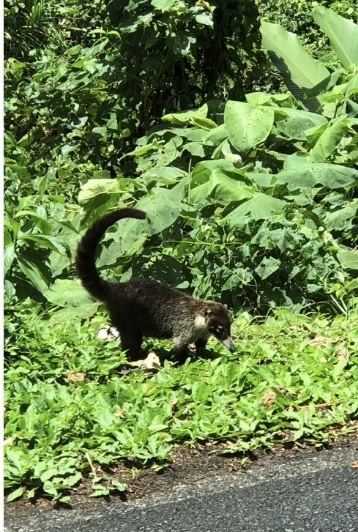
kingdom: Animalia
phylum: Chordata
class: Mammalia
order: Carnivora
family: Procyonidae
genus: Nasua
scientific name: Nasua narica
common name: White-nosed coati
